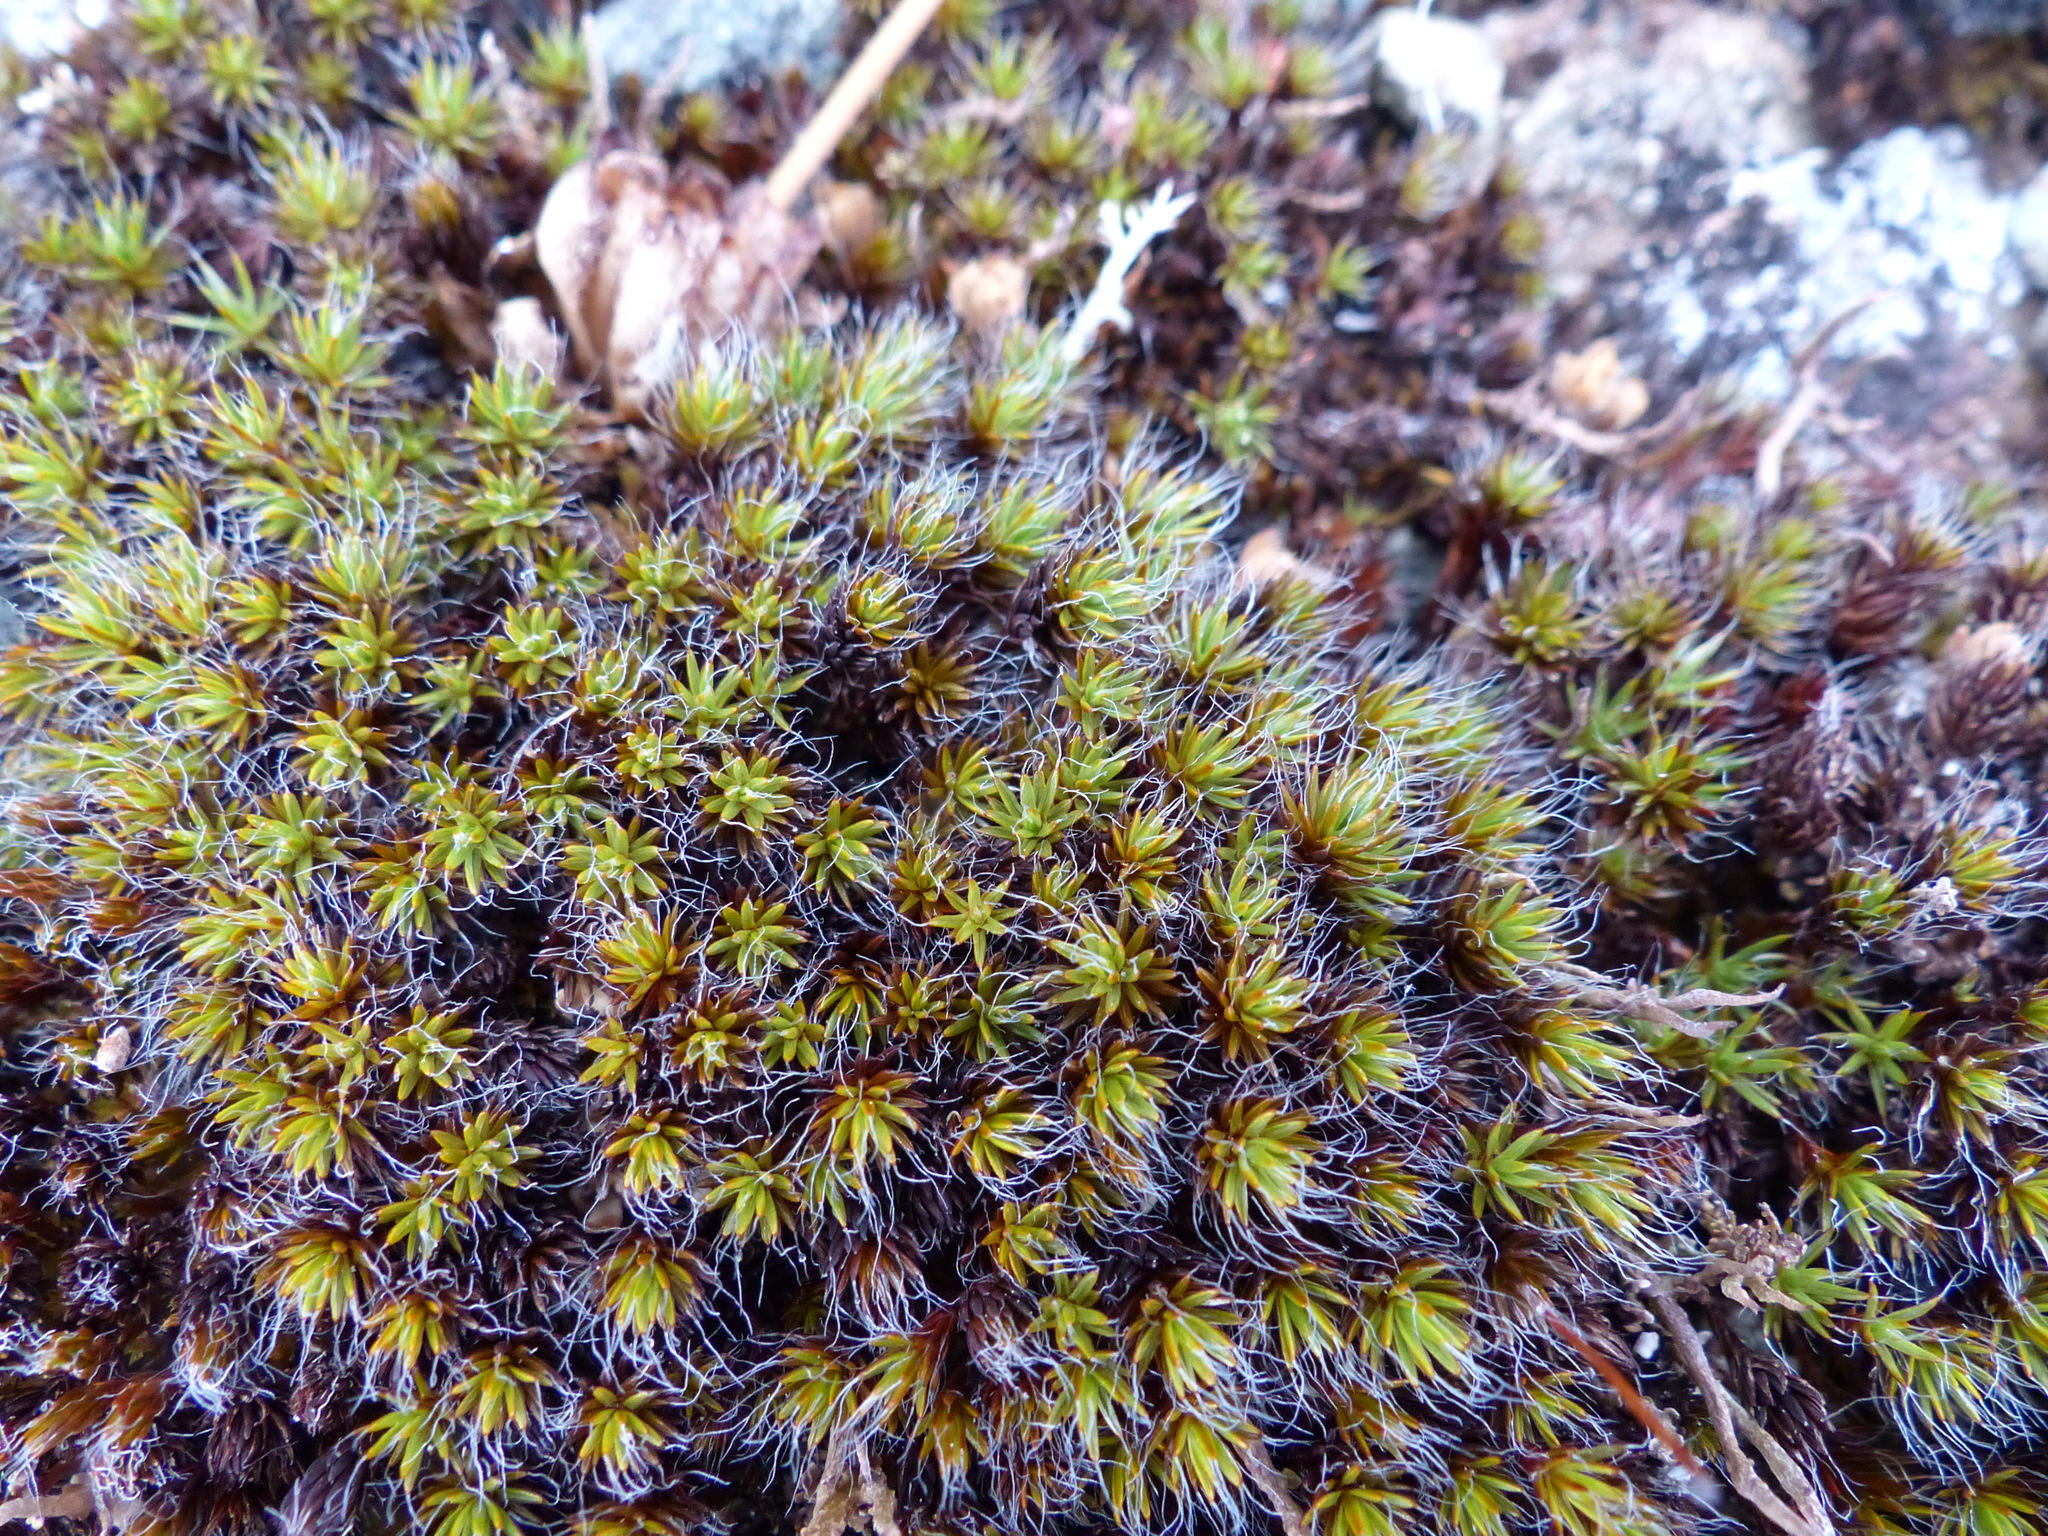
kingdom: Plantae
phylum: Bryophyta
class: Polytrichopsida
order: Polytrichales
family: Polytrichaceae
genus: Polytrichum
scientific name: Polytrichum piliferum
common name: Bristly haircap
